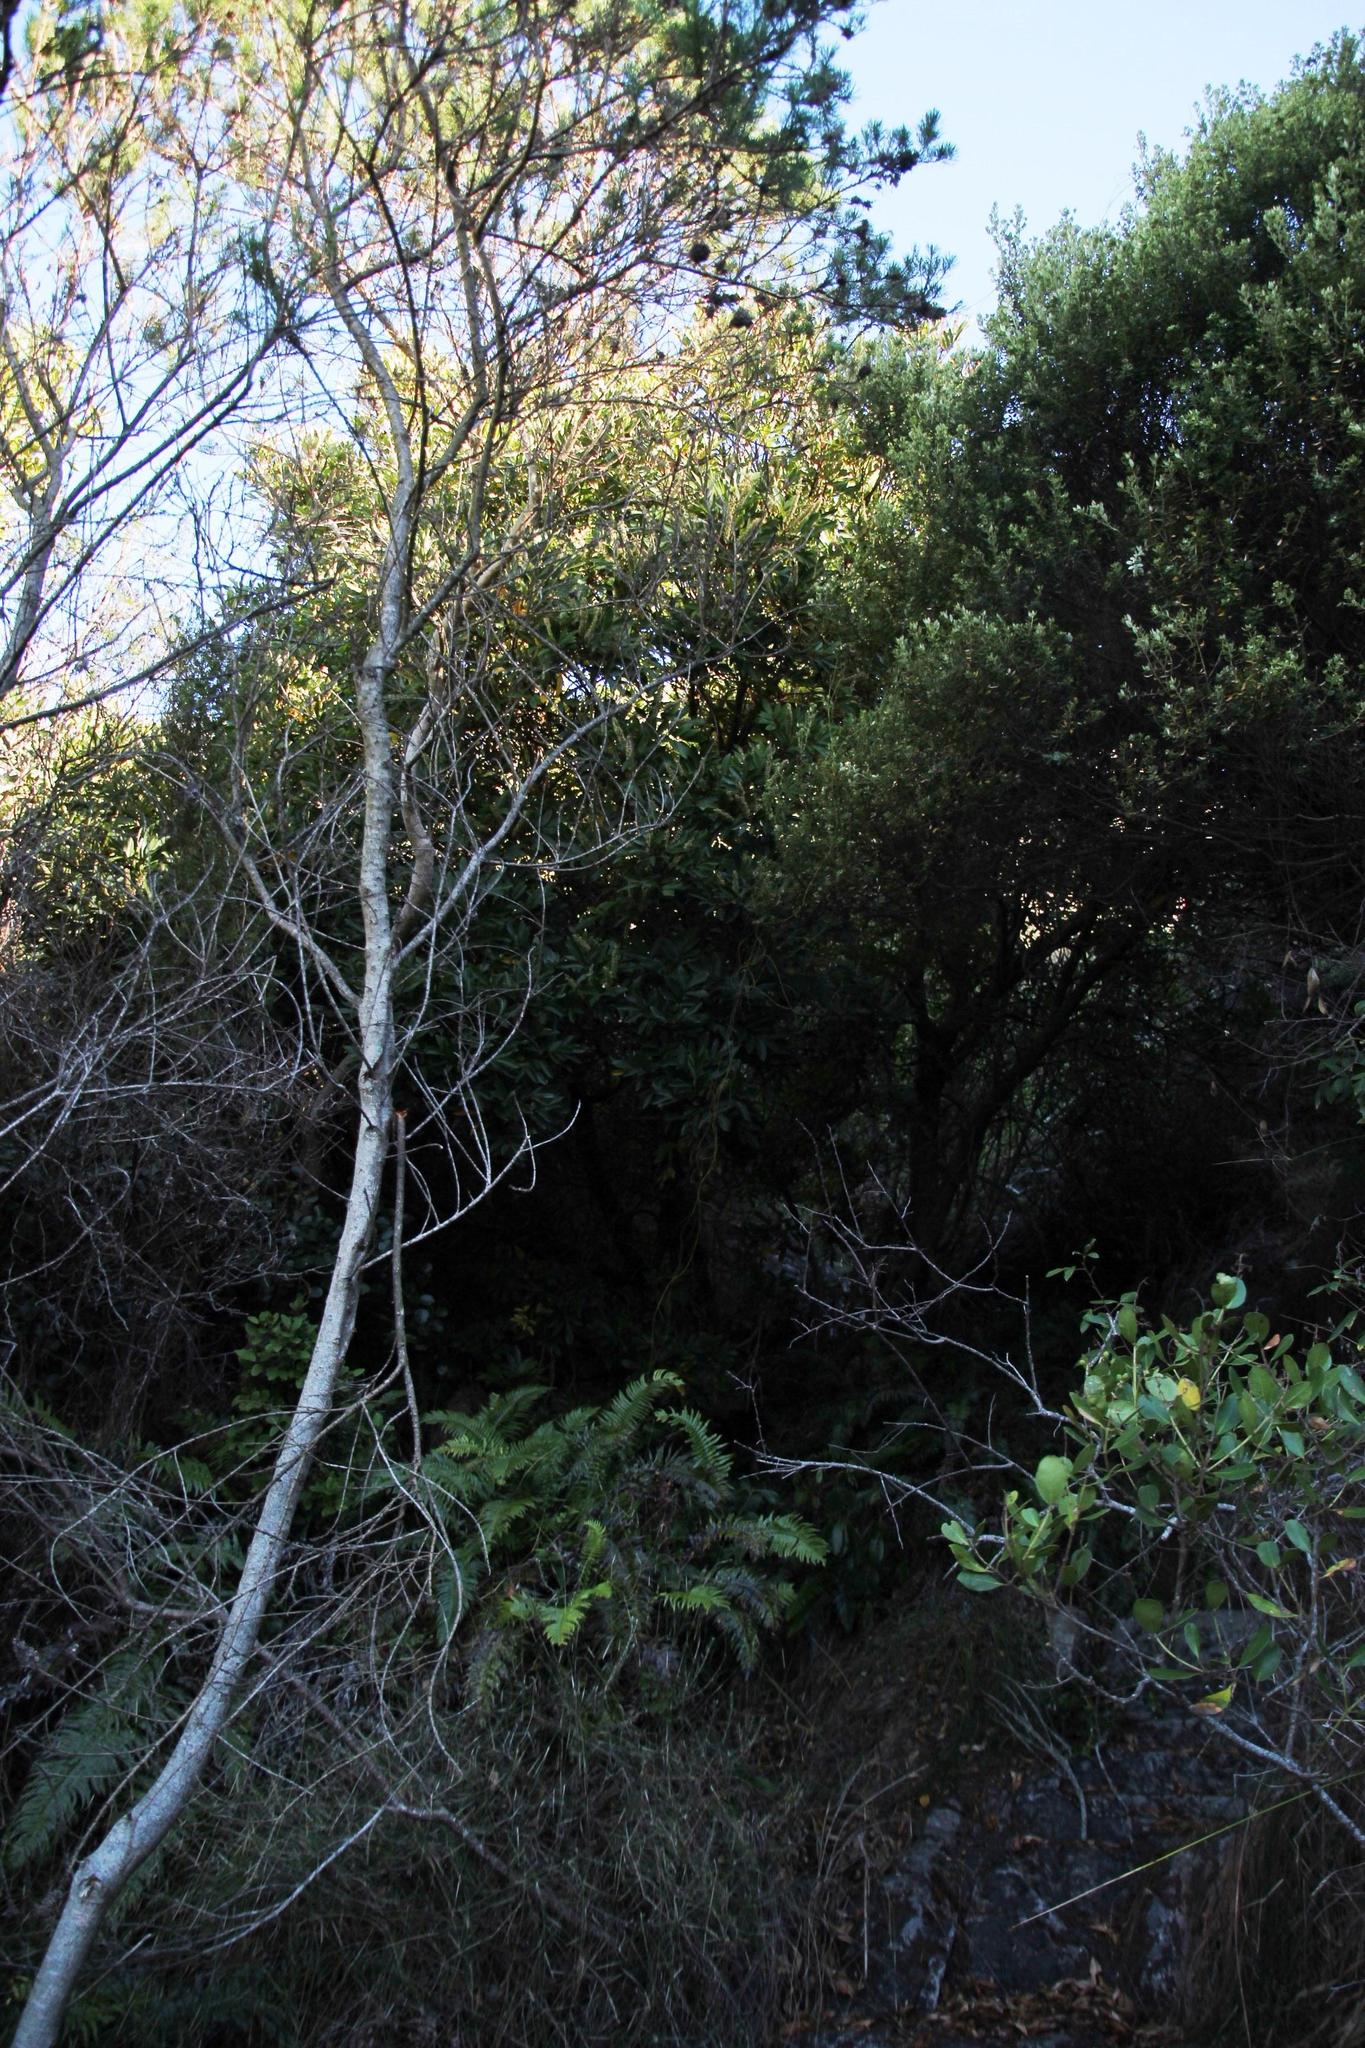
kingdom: Plantae
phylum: Tracheophyta
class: Magnoliopsida
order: Oxalidales
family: Cunoniaceae
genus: Cunonia
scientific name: Cunonia capensis
